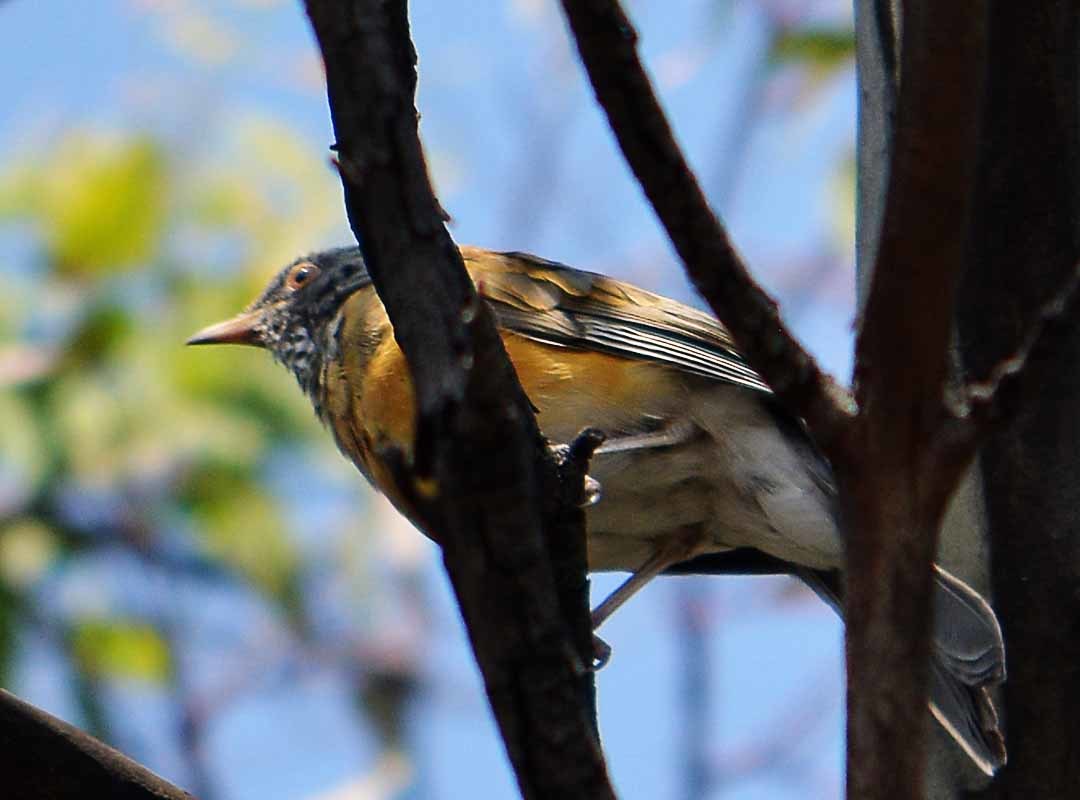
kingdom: Animalia
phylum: Chordata
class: Aves
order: Passeriformes
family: Turdidae
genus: Turdus
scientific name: Turdus rufopalliatus
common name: Rufous-backed robin
